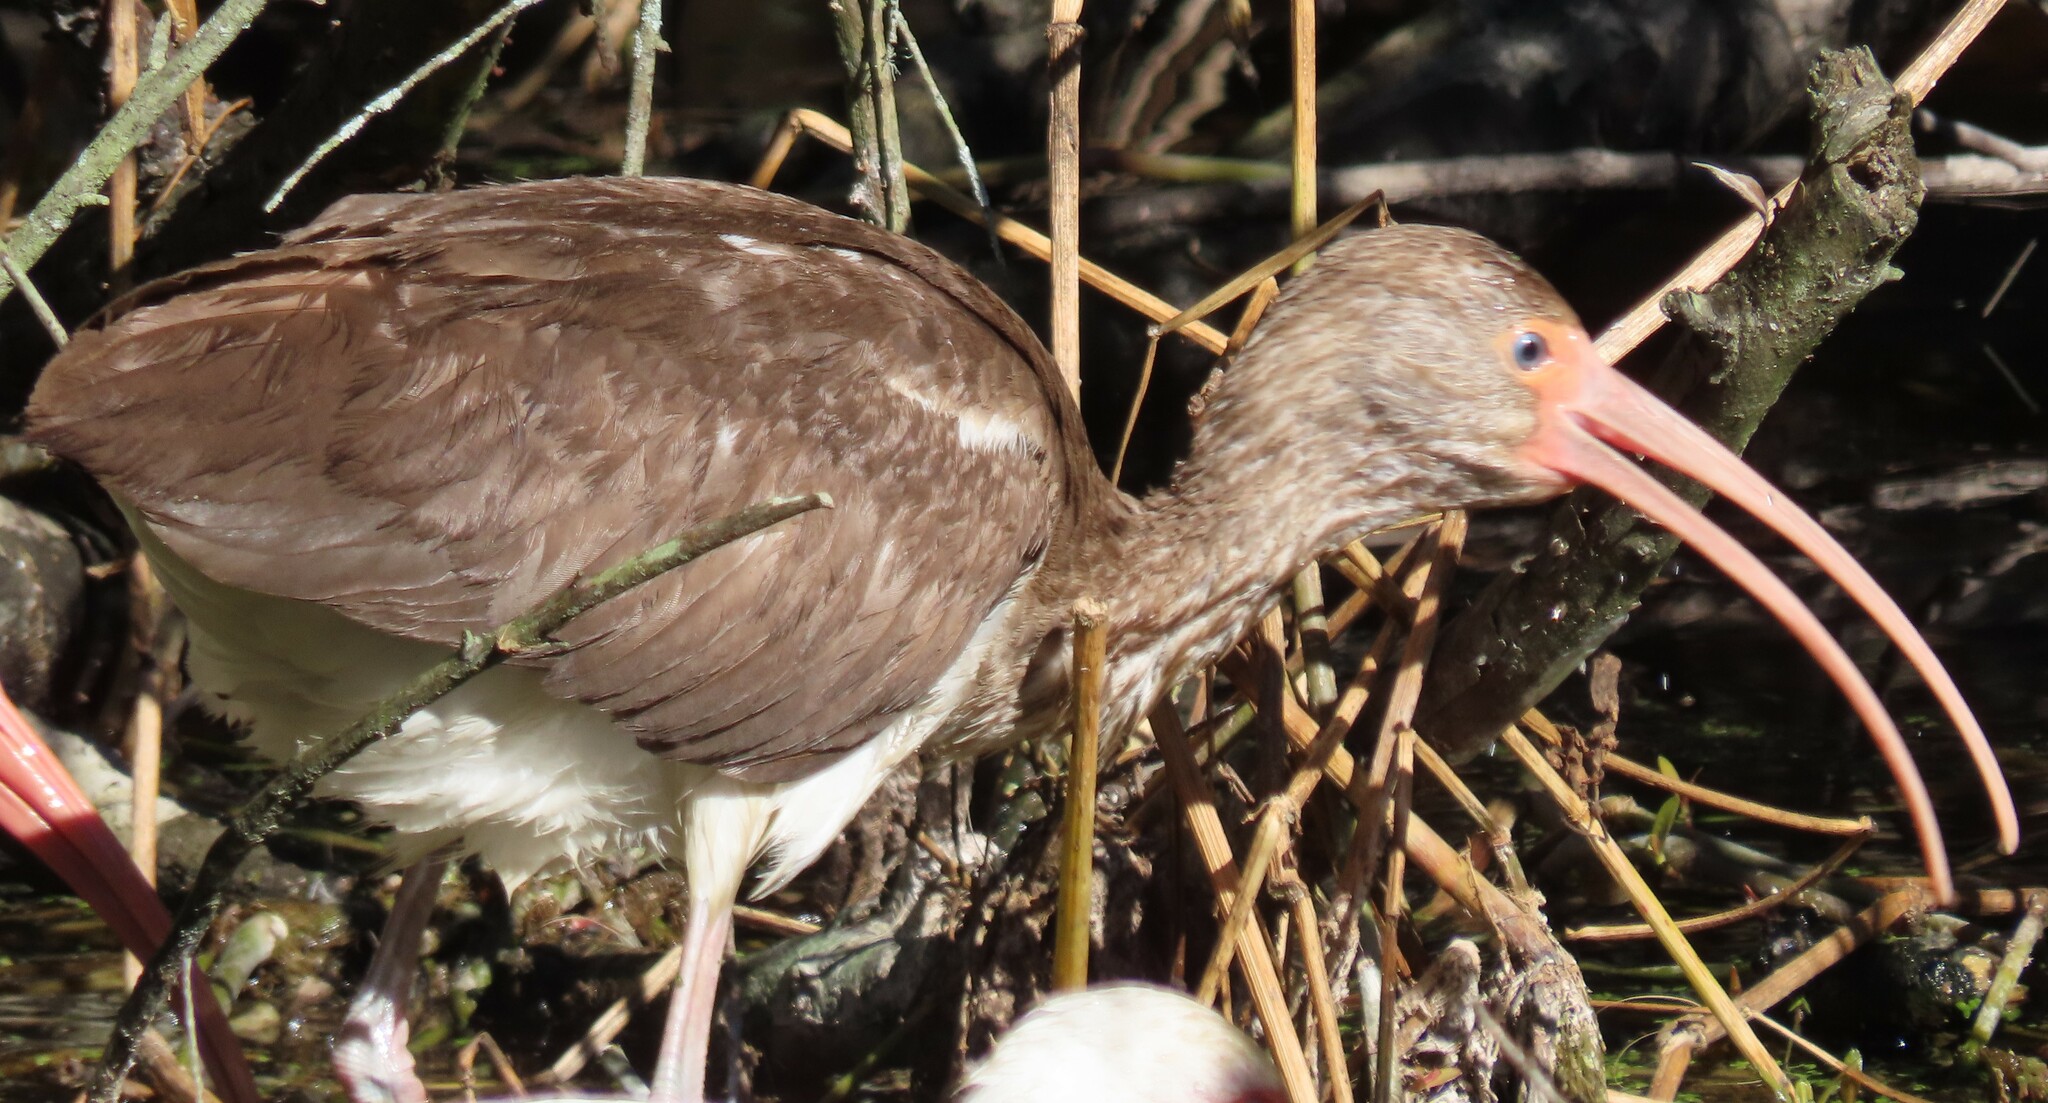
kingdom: Animalia
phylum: Chordata
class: Aves
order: Pelecaniformes
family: Threskiornithidae
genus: Eudocimus
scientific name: Eudocimus albus
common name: White ibis
